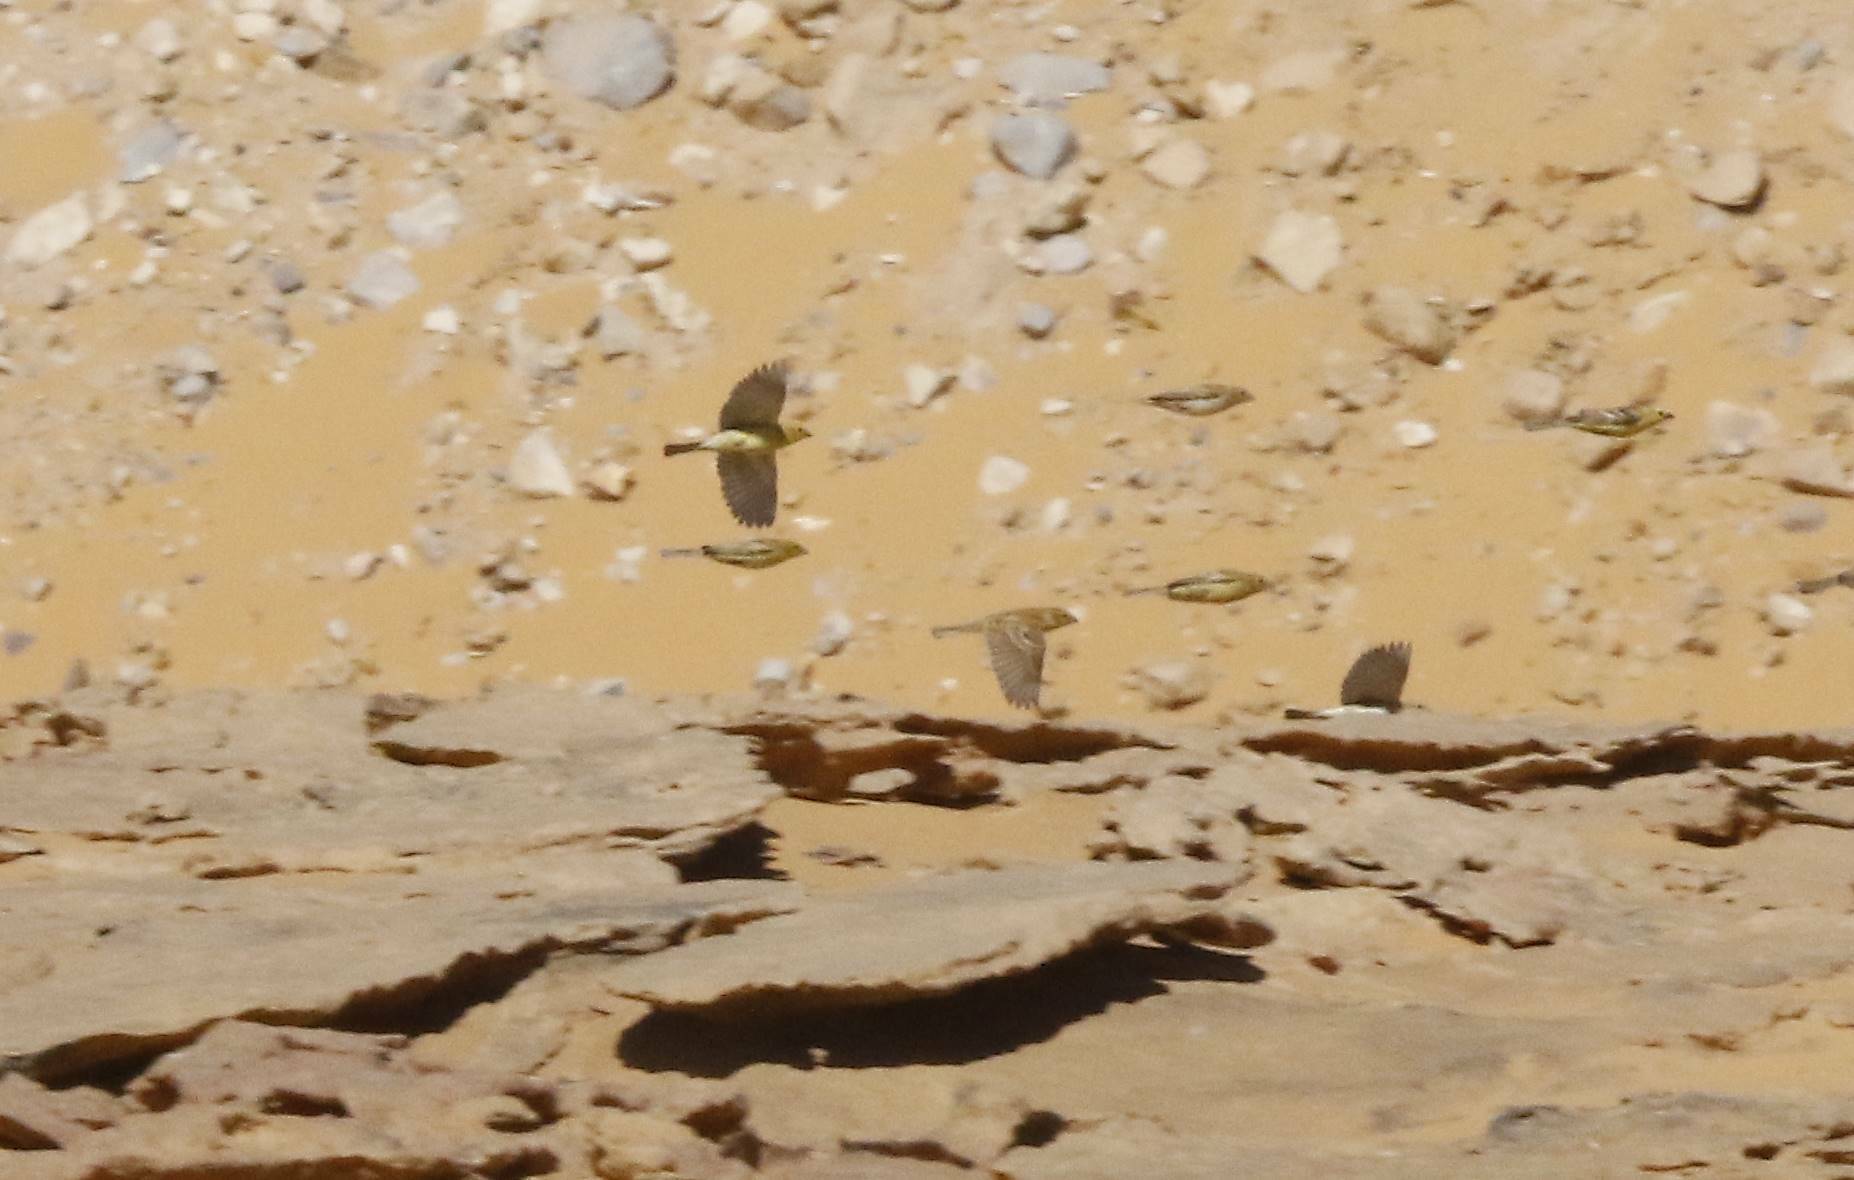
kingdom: Animalia
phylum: Chordata
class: Aves
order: Passeriformes
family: Passeridae
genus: Passer
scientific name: Passer luteus
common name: Sudan golden sparrow
